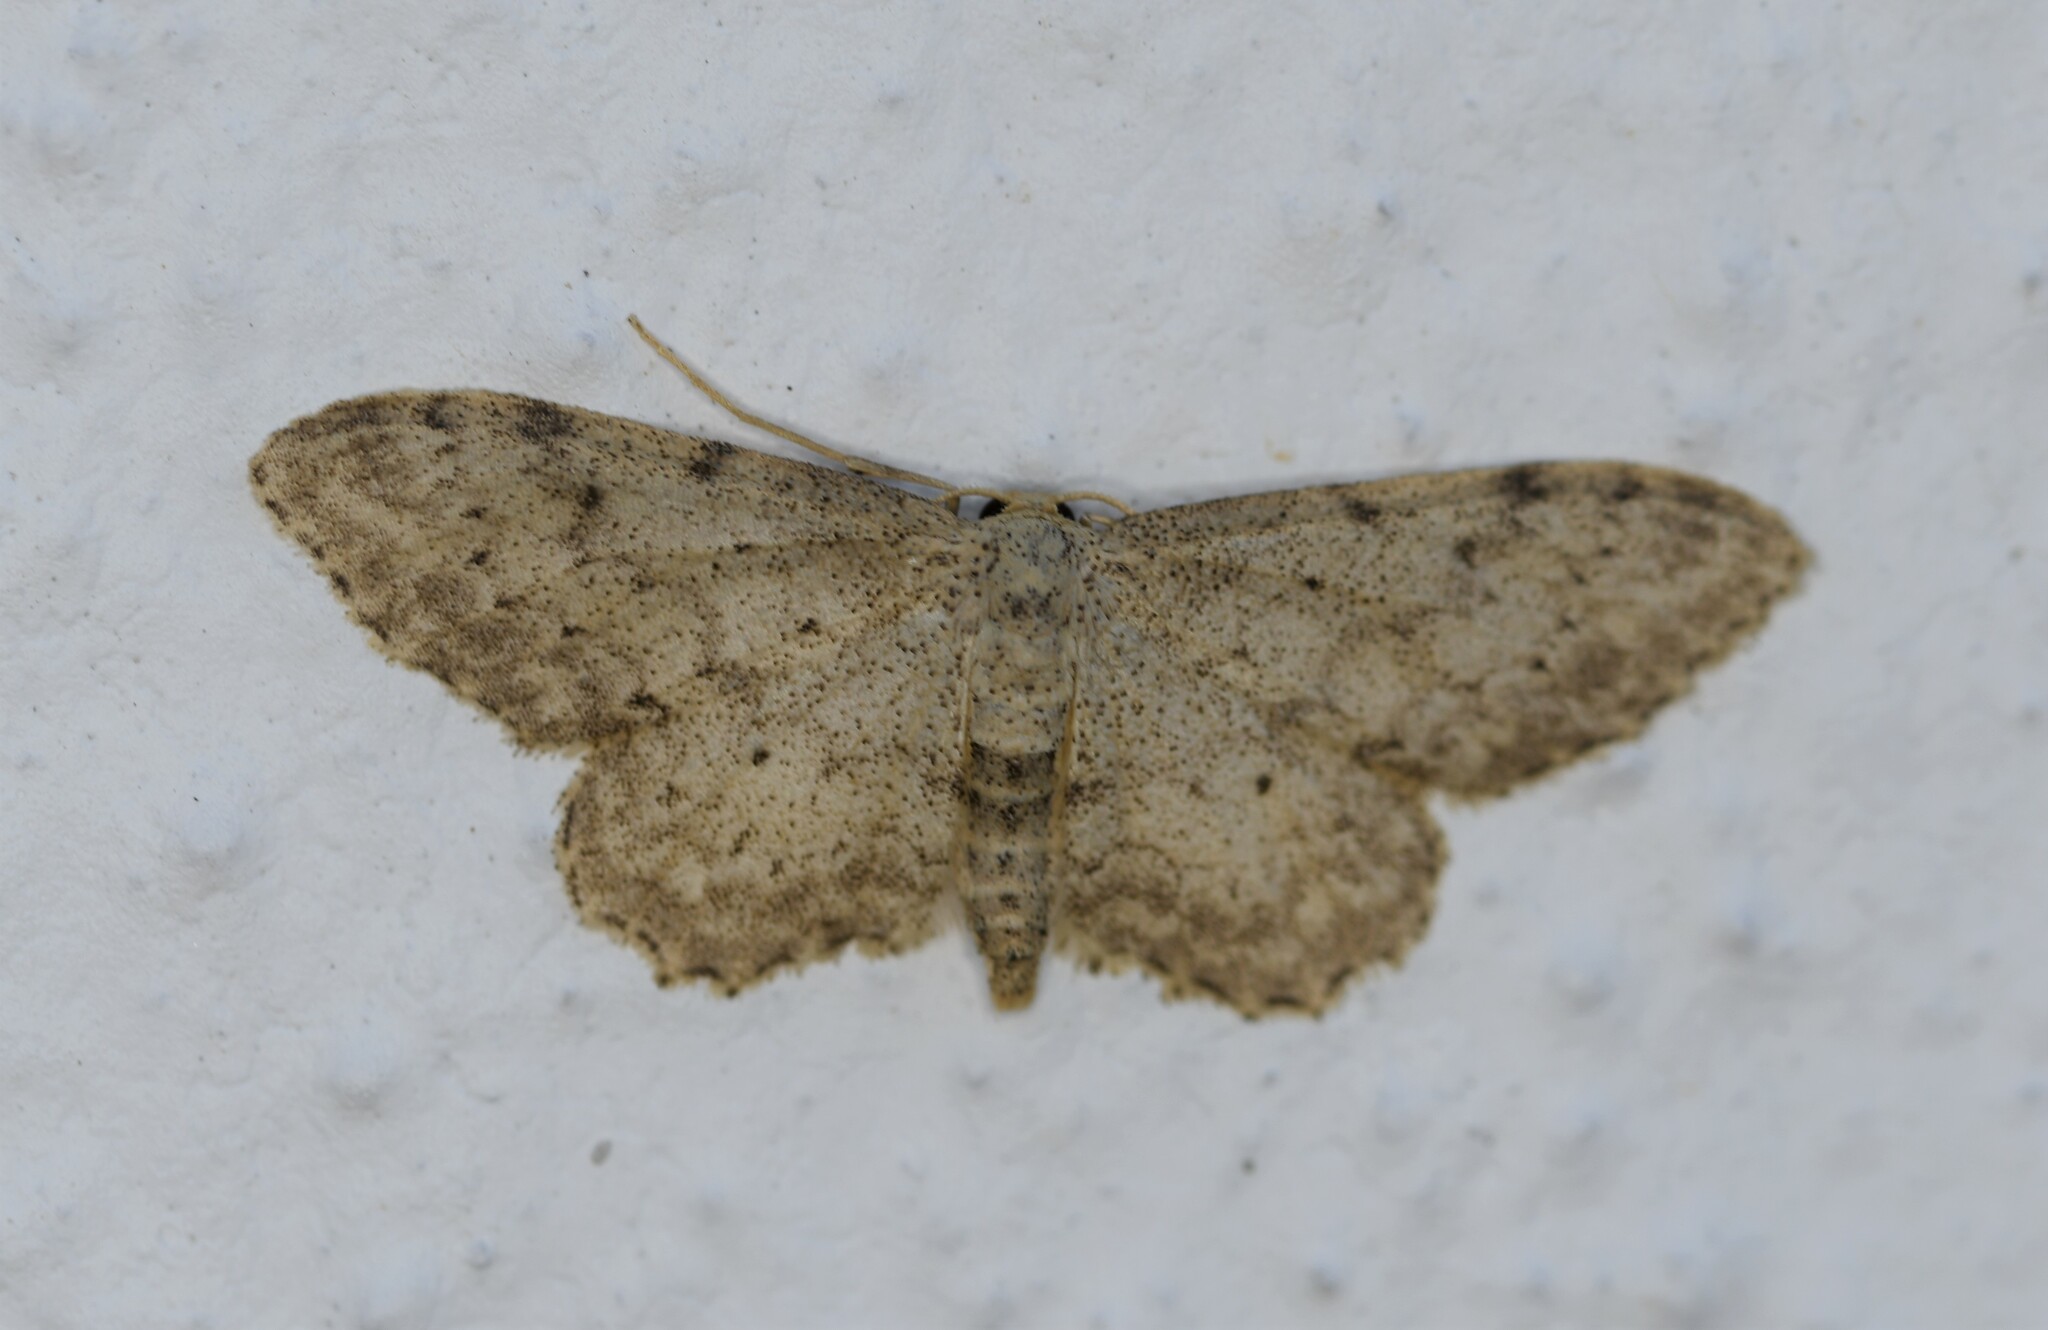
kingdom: Animalia
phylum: Arthropoda
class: Insecta
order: Lepidoptera
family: Geometridae
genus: Idaea
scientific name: Idaea incisaria
